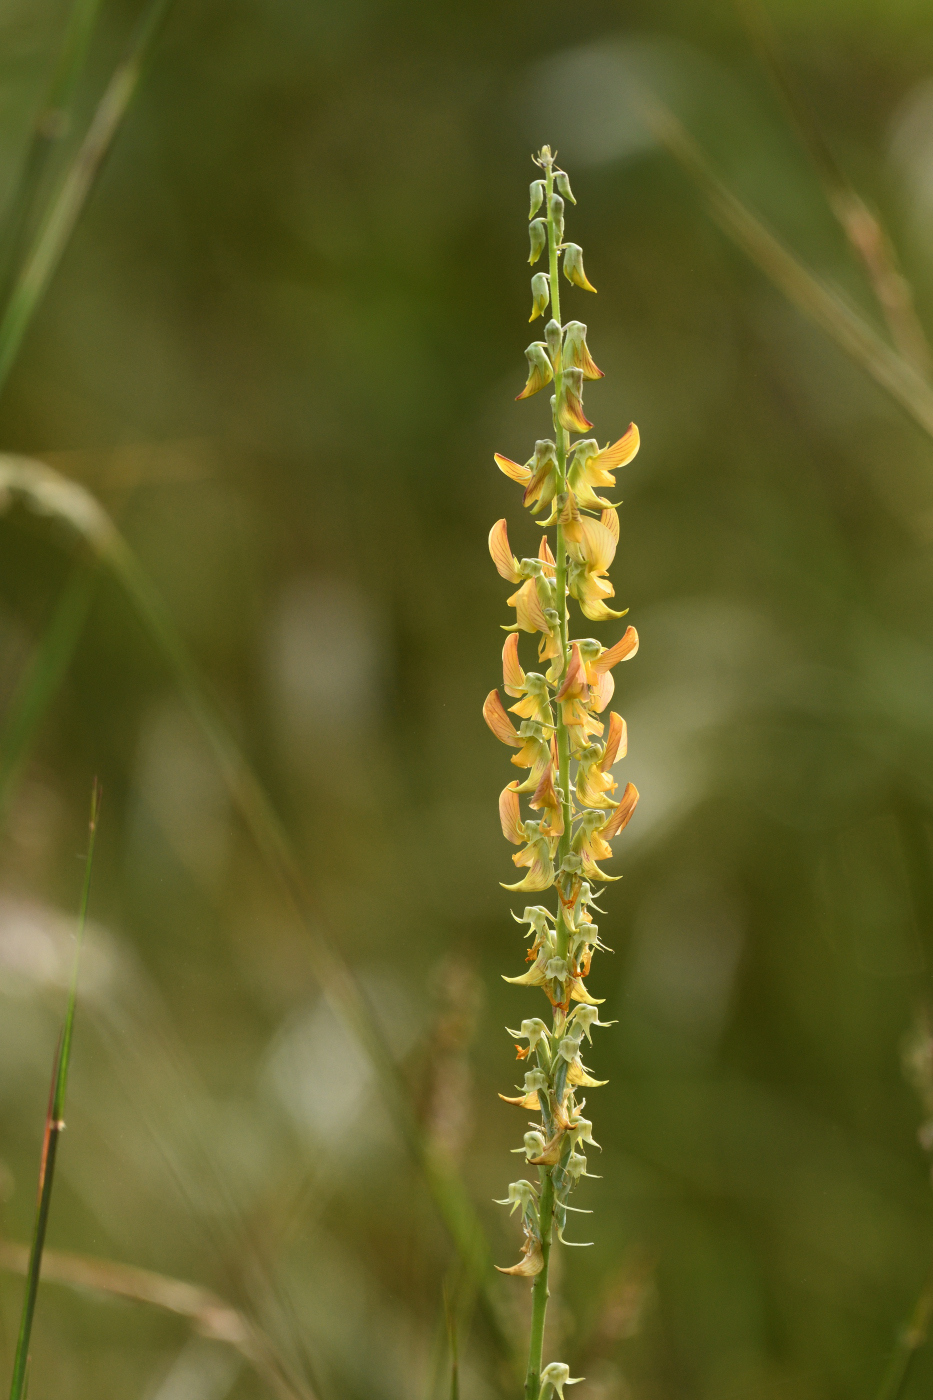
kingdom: Plantae
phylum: Tracheophyta
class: Magnoliopsida
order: Fabales
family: Fabaceae
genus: Crotalaria
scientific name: Crotalaria pallida
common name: Smooth rattlebox
